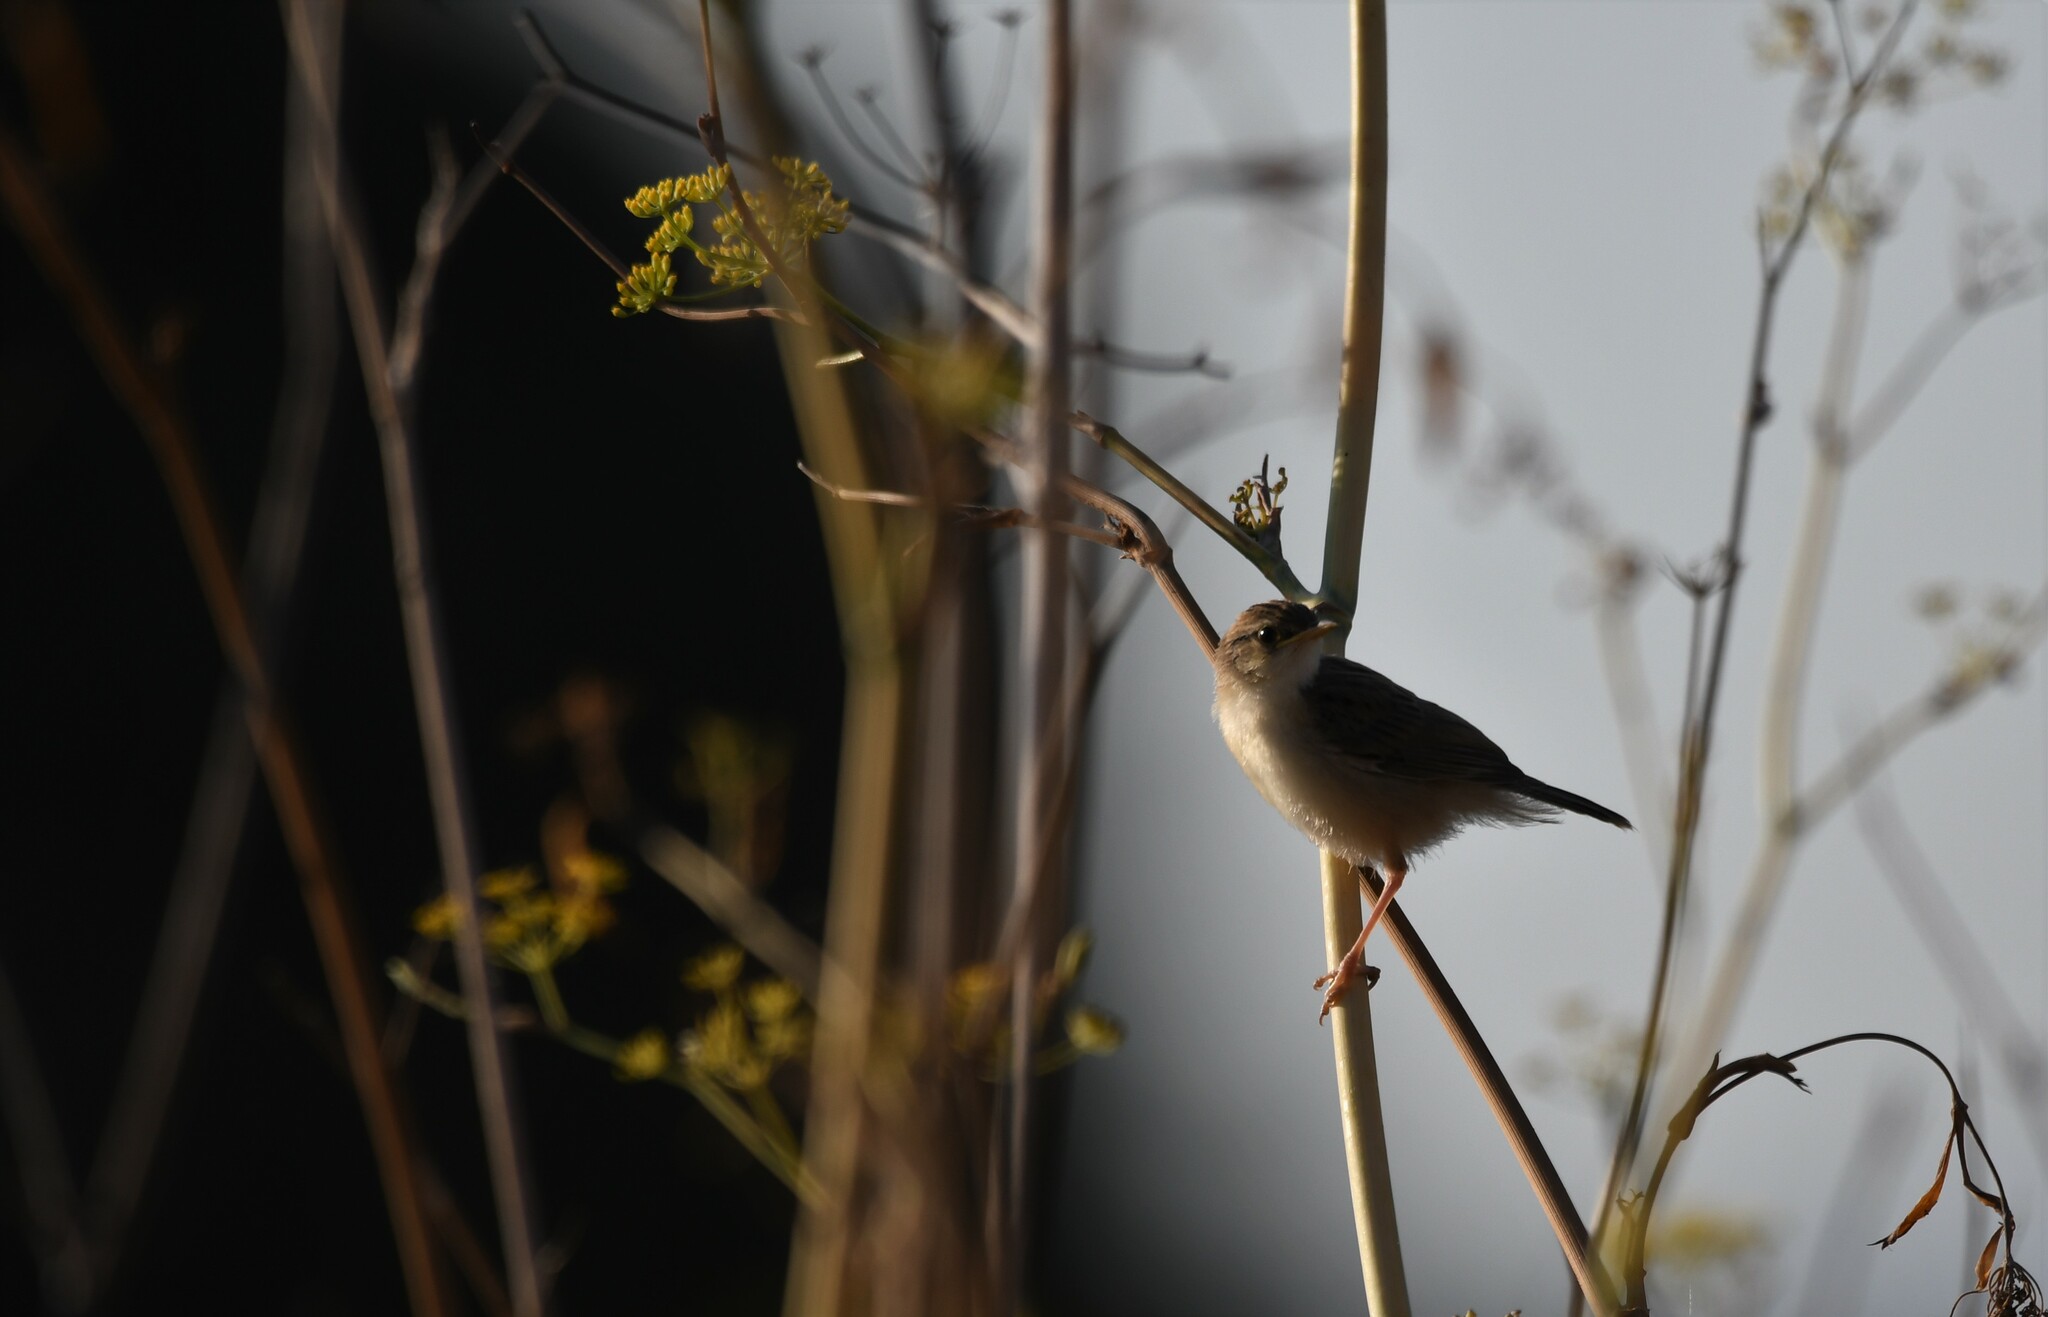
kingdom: Animalia
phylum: Chordata
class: Aves
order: Passeriformes
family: Cisticolidae
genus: Cisticola
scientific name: Cisticola juncidis
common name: Zitting cisticola
